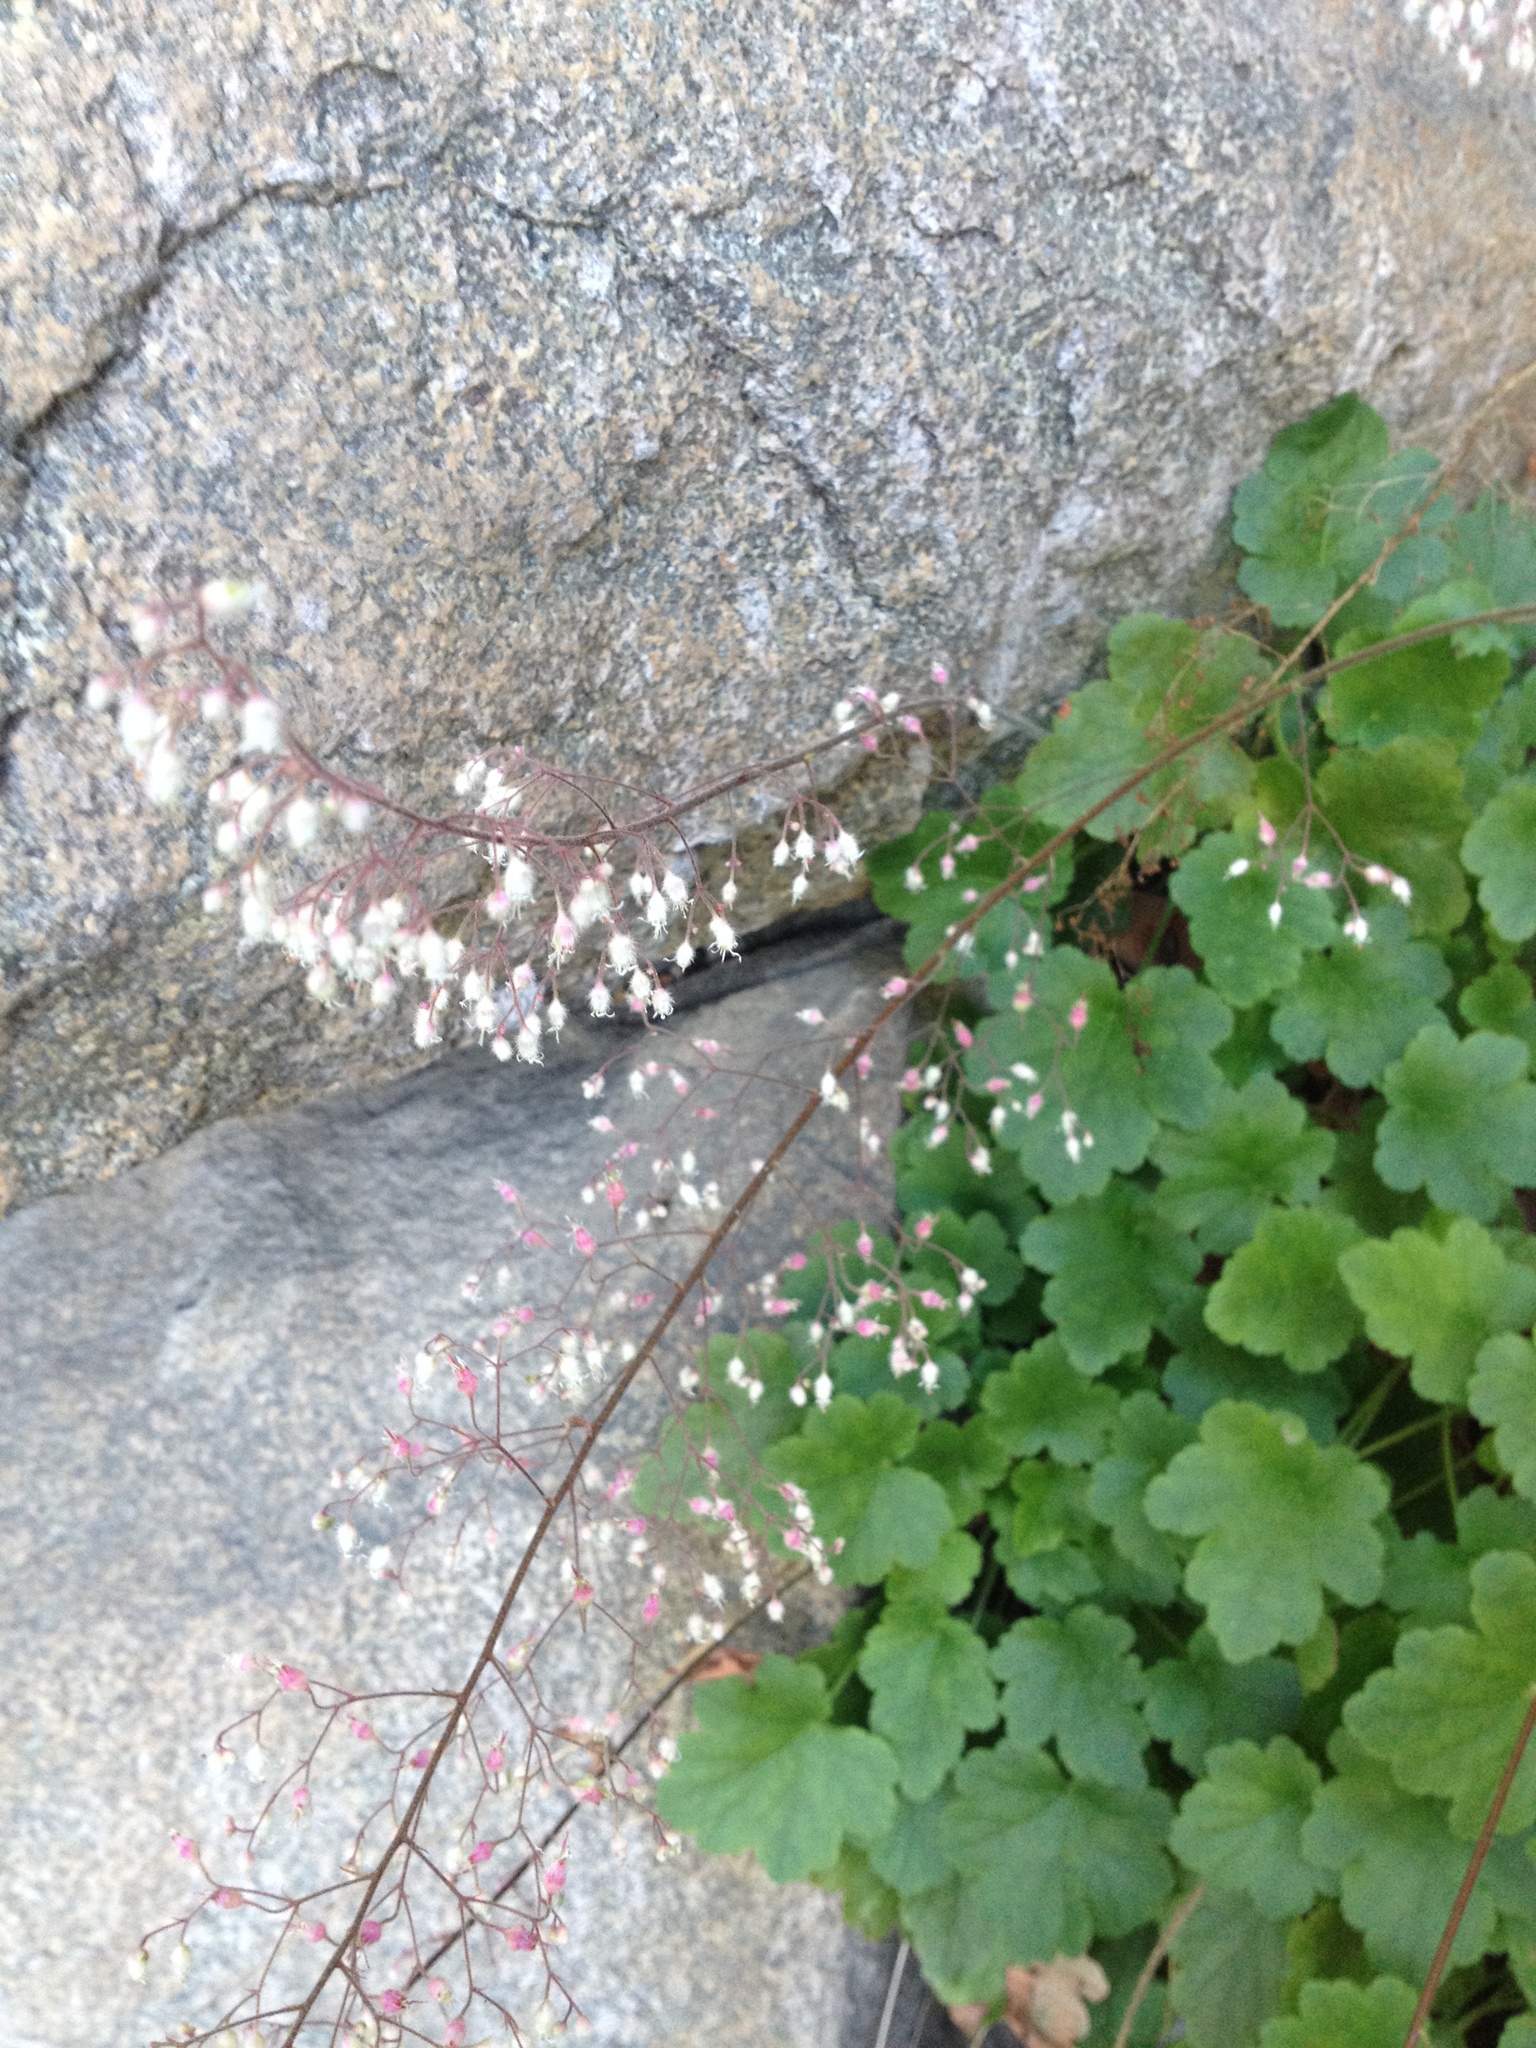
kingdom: Plantae
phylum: Tracheophyta
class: Magnoliopsida
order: Saxifragales
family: Saxifragaceae
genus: Heuchera
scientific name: Heuchera rubescens
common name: Jack-o'the-rocks
